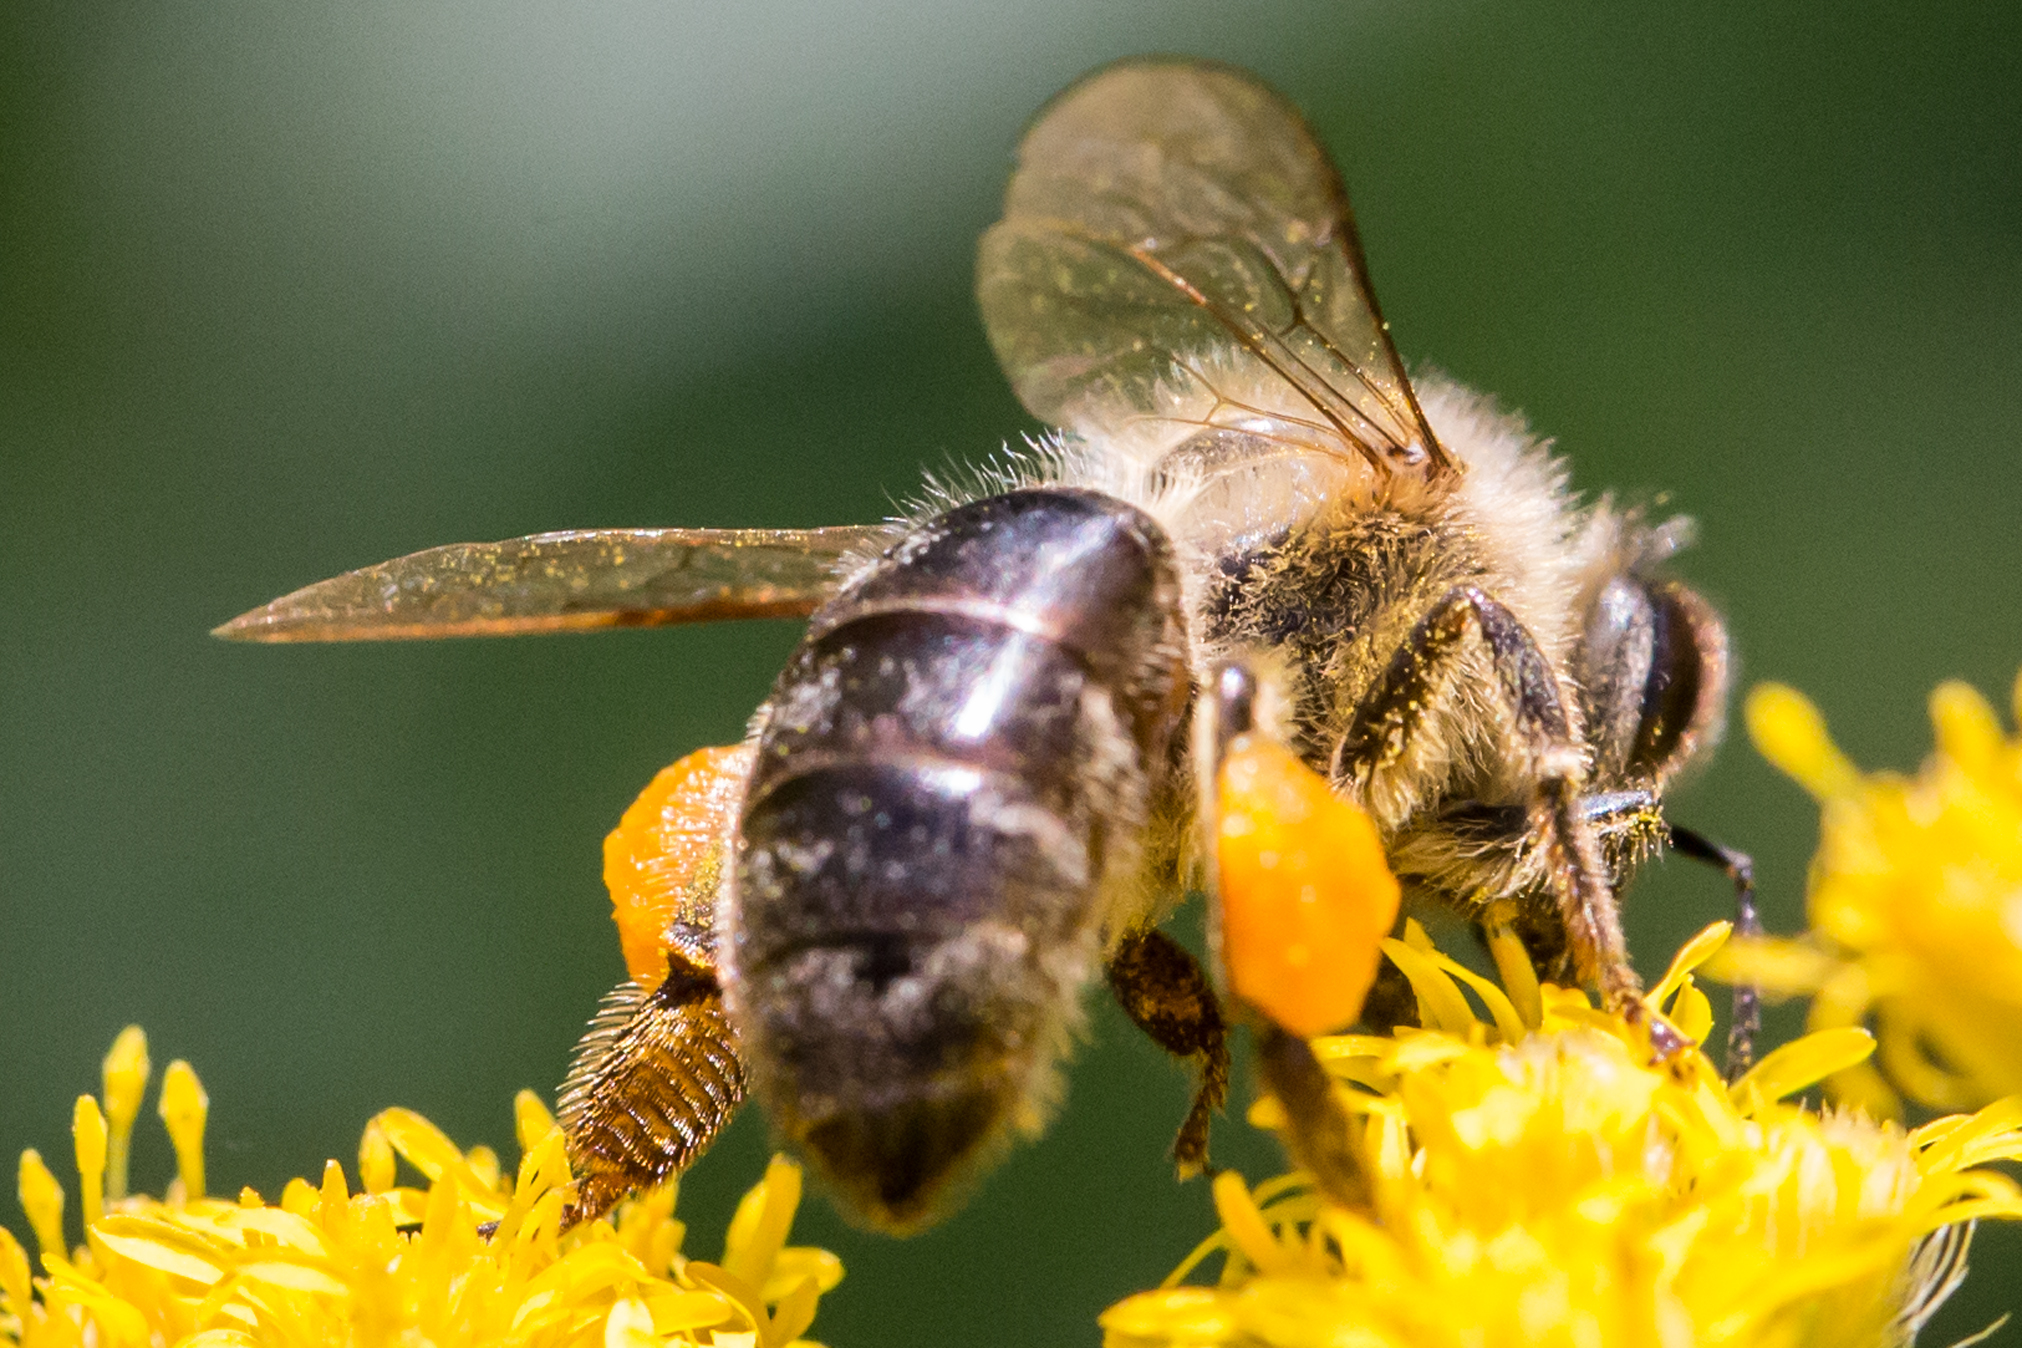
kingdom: Animalia
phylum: Arthropoda
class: Insecta
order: Hymenoptera
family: Apidae
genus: Apis
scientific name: Apis mellifera
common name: Honey bee
